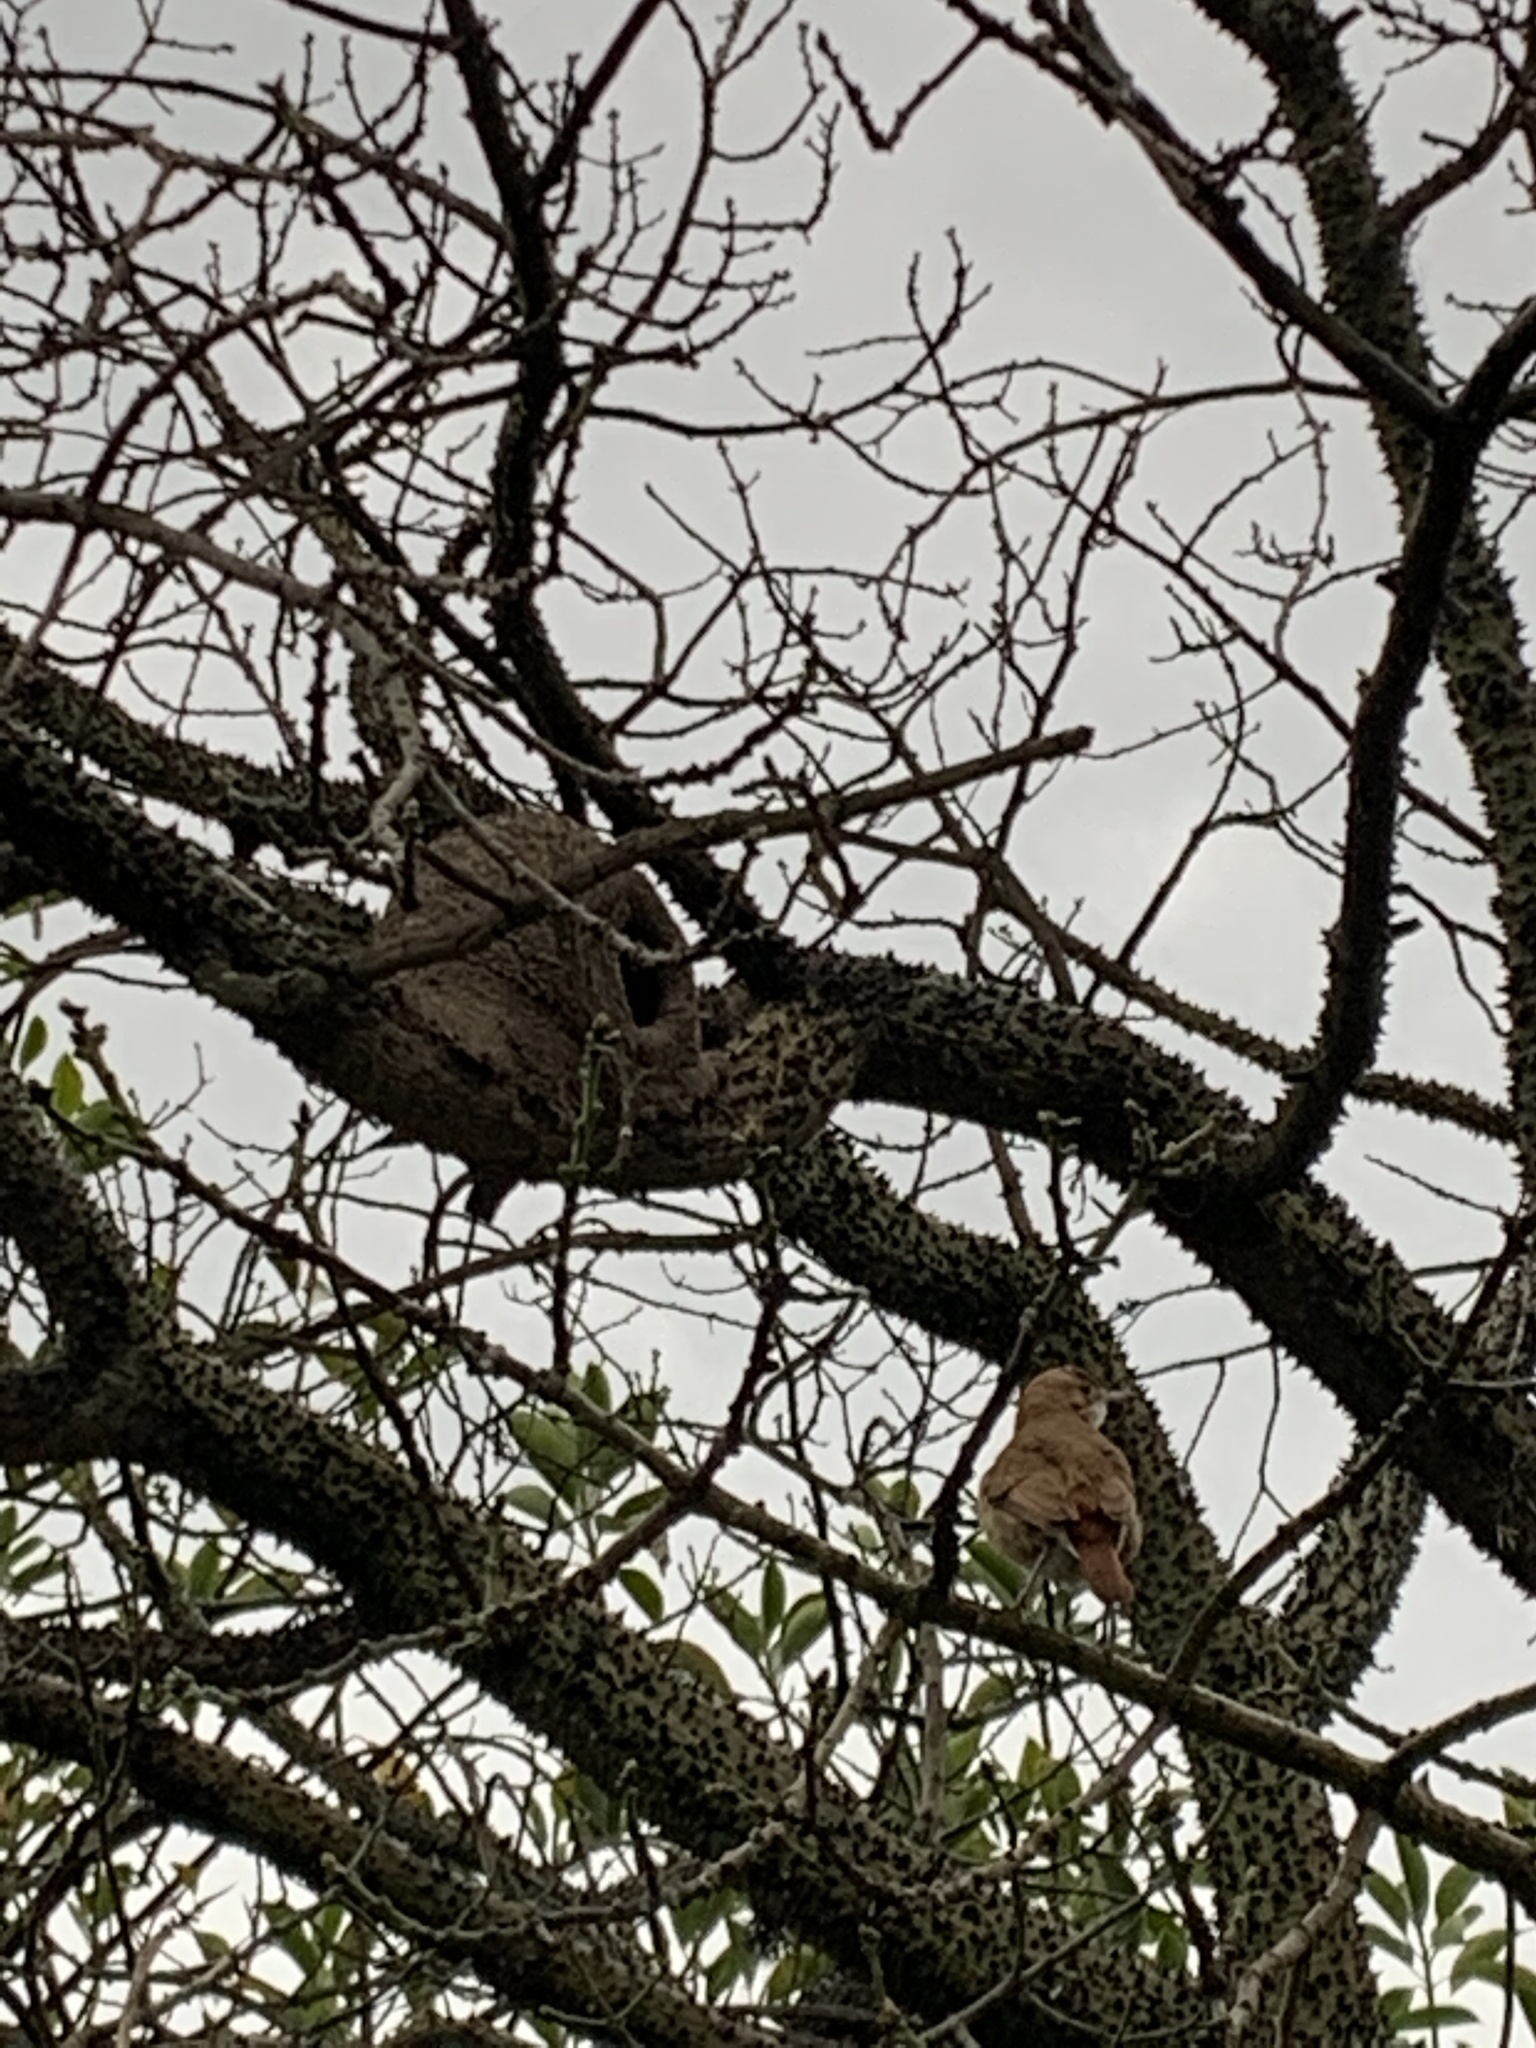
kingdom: Animalia
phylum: Chordata
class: Aves
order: Passeriformes
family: Furnariidae
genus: Furnarius
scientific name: Furnarius rufus
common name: Rufous hornero
